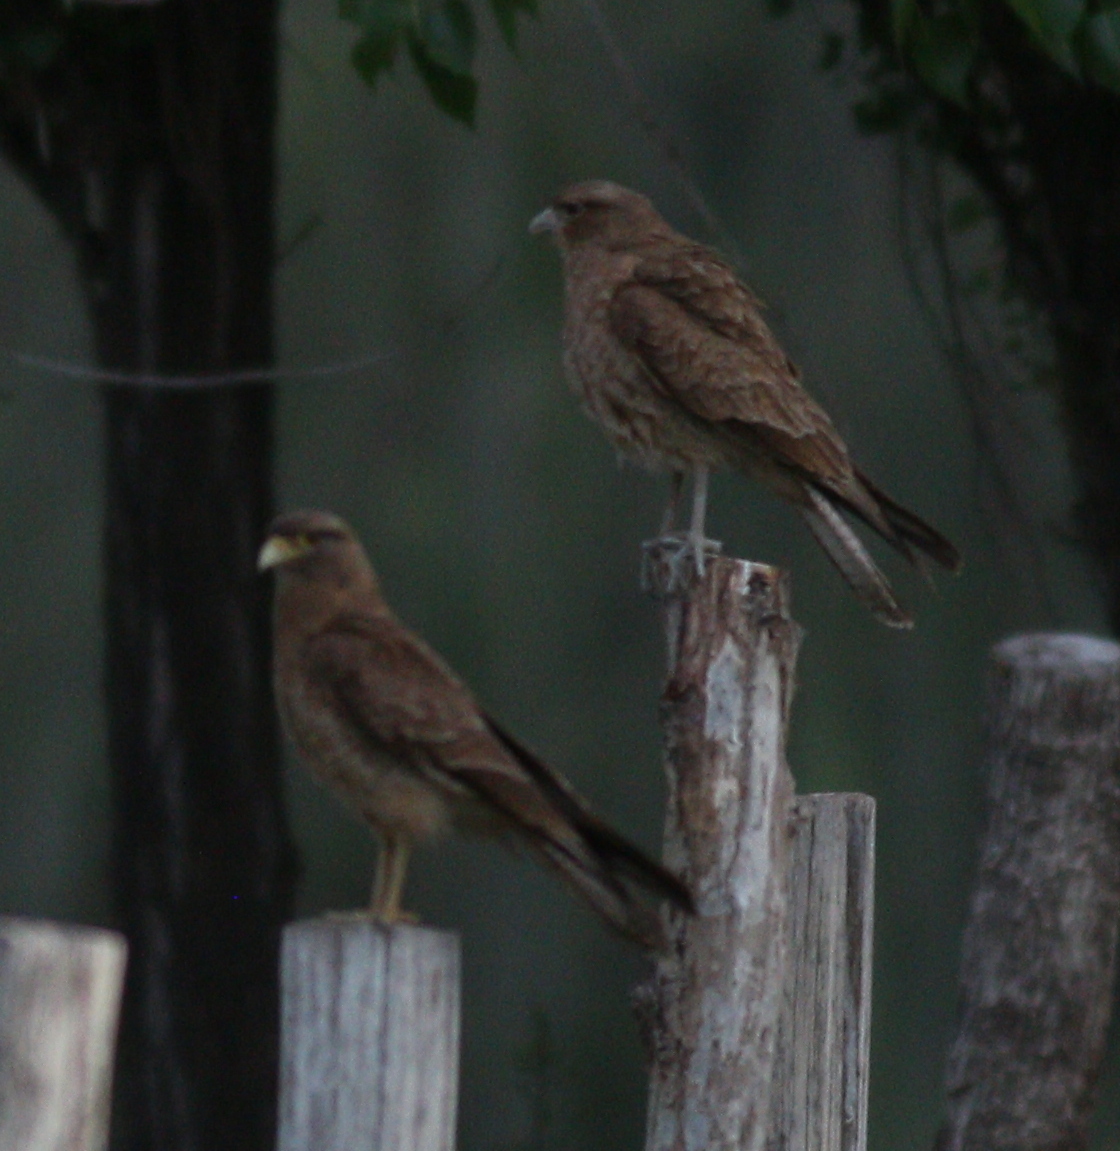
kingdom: Animalia
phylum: Chordata
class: Aves
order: Falconiformes
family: Falconidae
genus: Daptrius
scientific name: Daptrius
